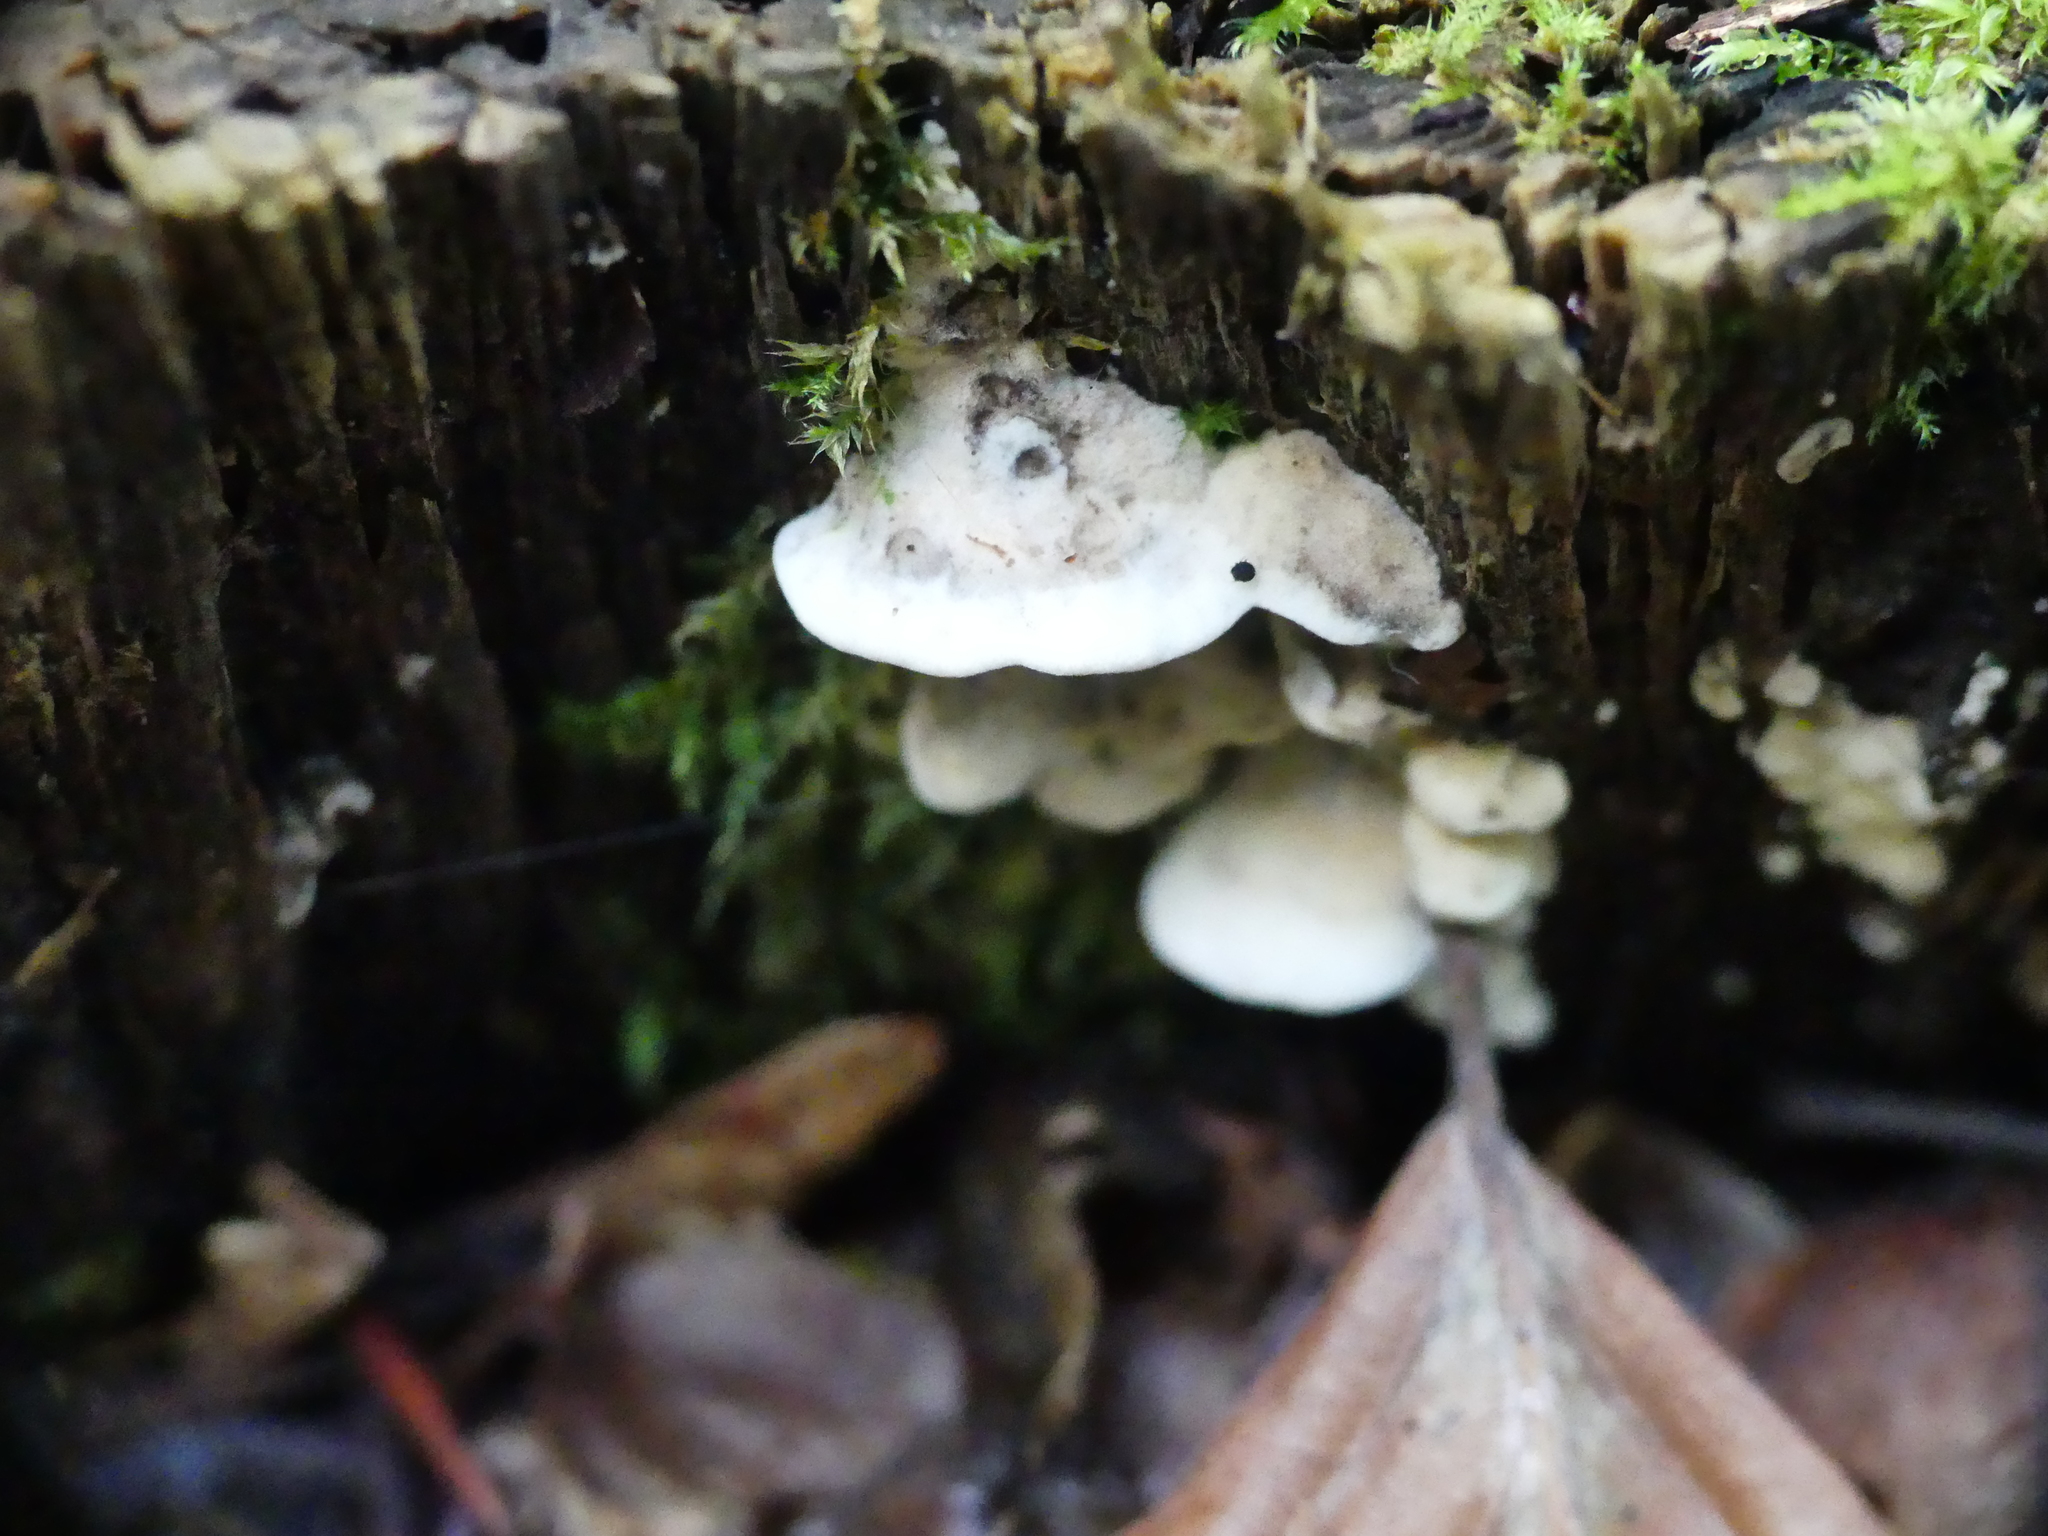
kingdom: Fungi
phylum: Basidiomycota
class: Agaricomycetes
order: Polyporales
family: Polyporaceae
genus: Cyanosporus
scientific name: Cyanosporus caesius
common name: Blue cheese polypore
